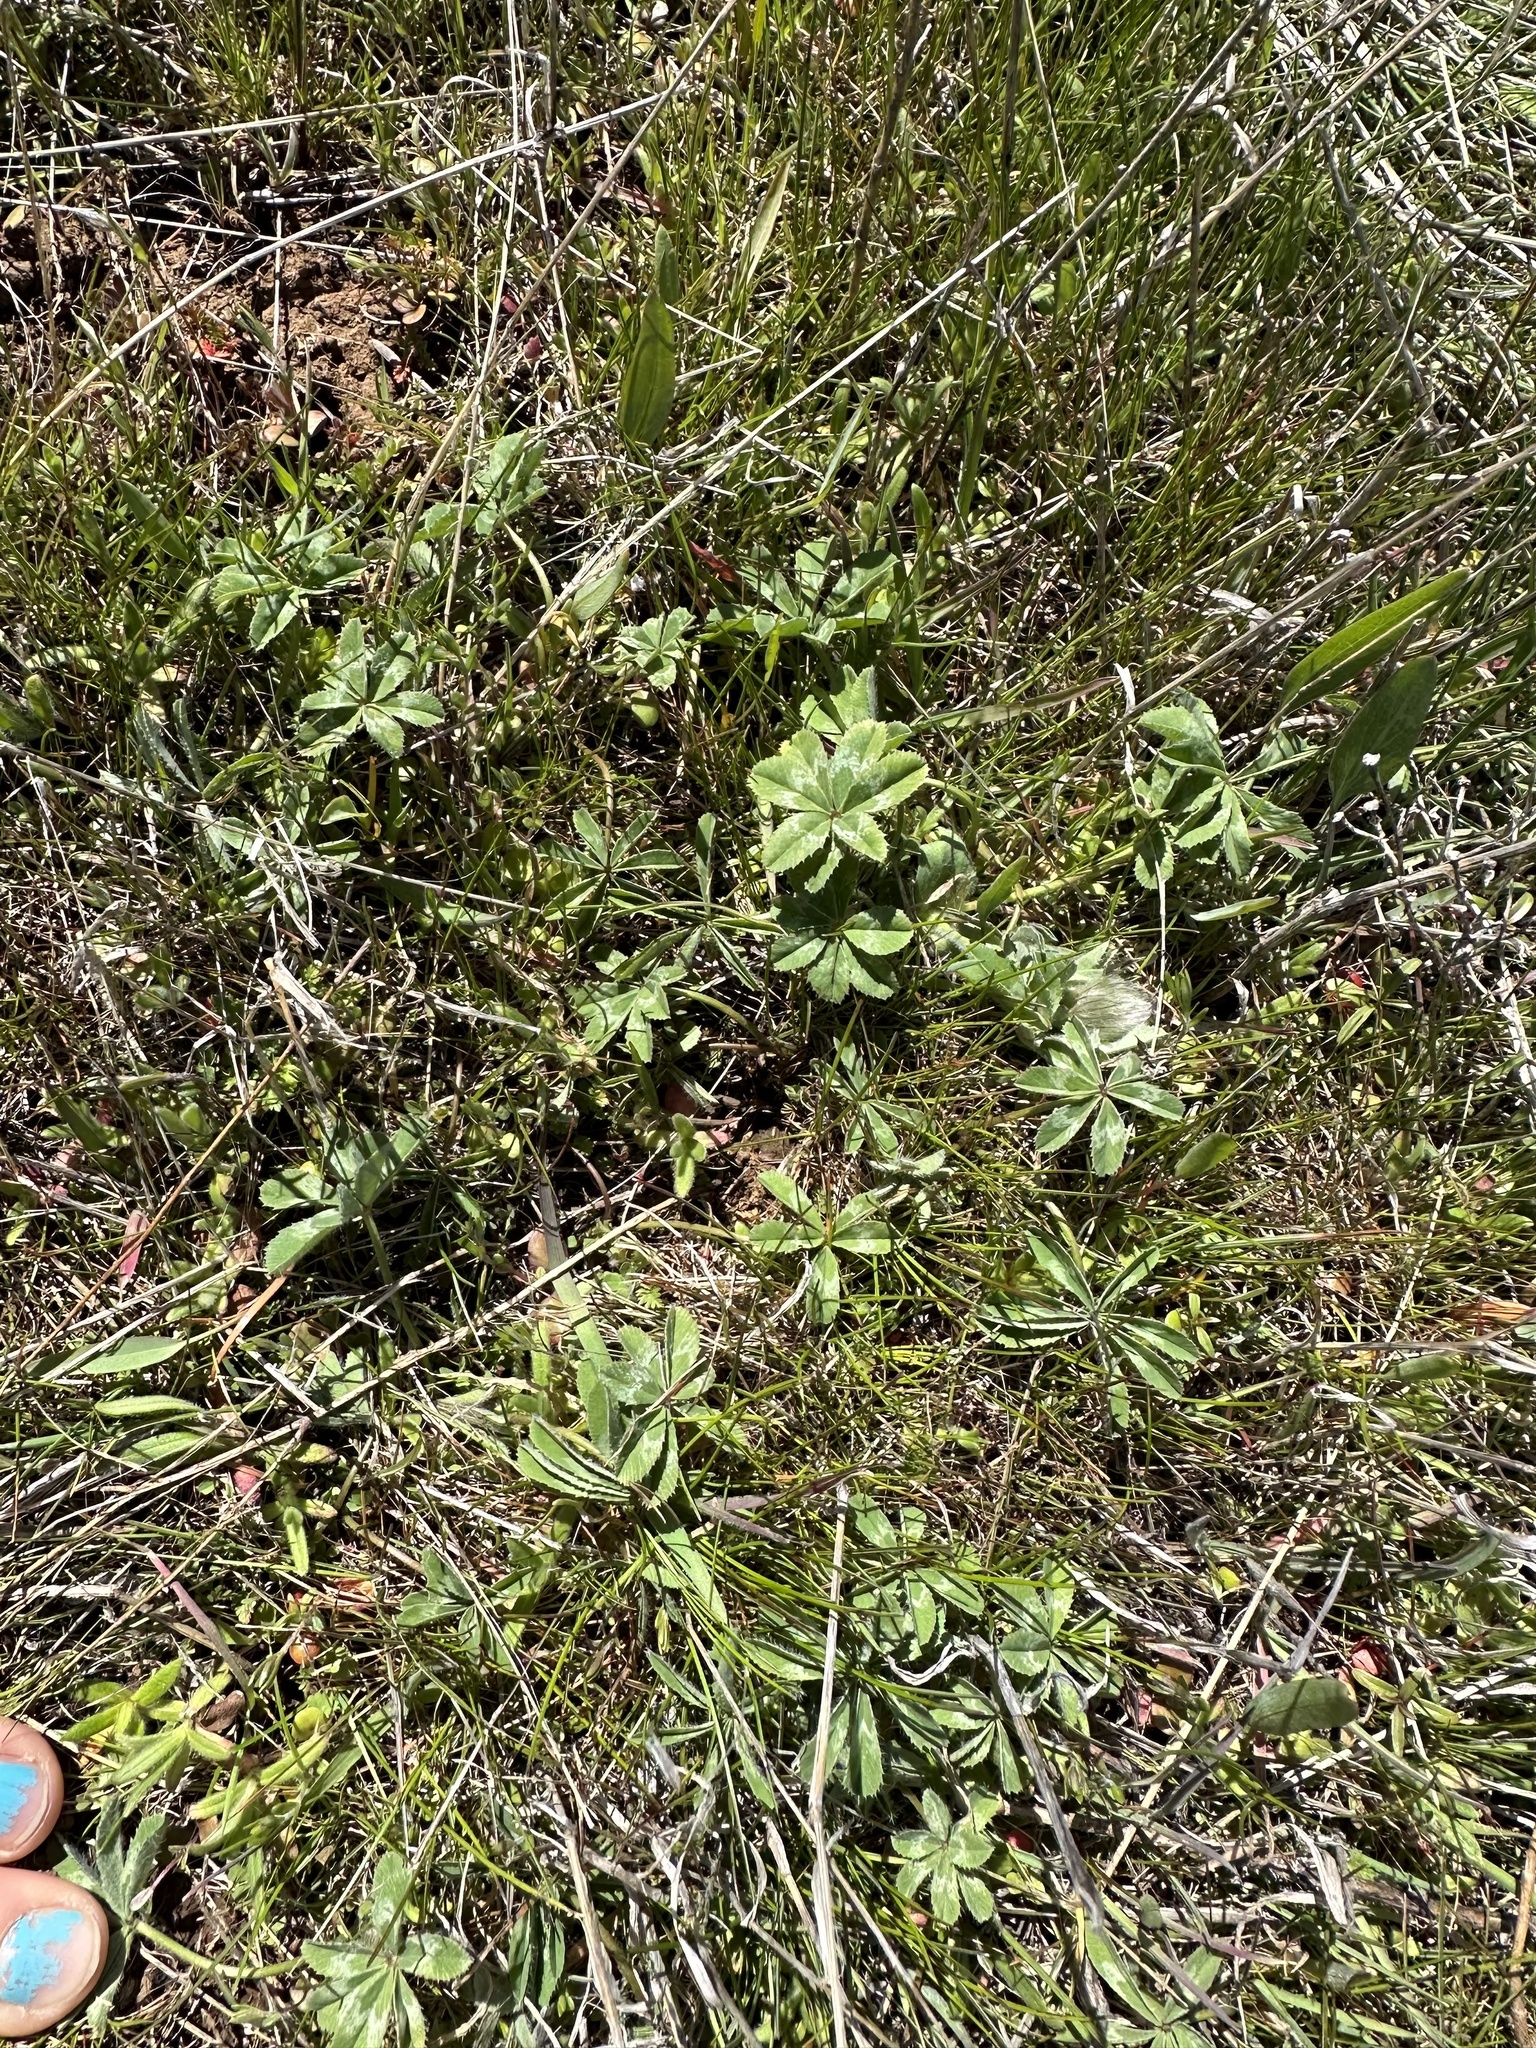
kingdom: Plantae
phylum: Tracheophyta
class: Magnoliopsida
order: Fabales
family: Fabaceae
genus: Trifolium
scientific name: Trifolium macrocephalum
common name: Large-head clover
